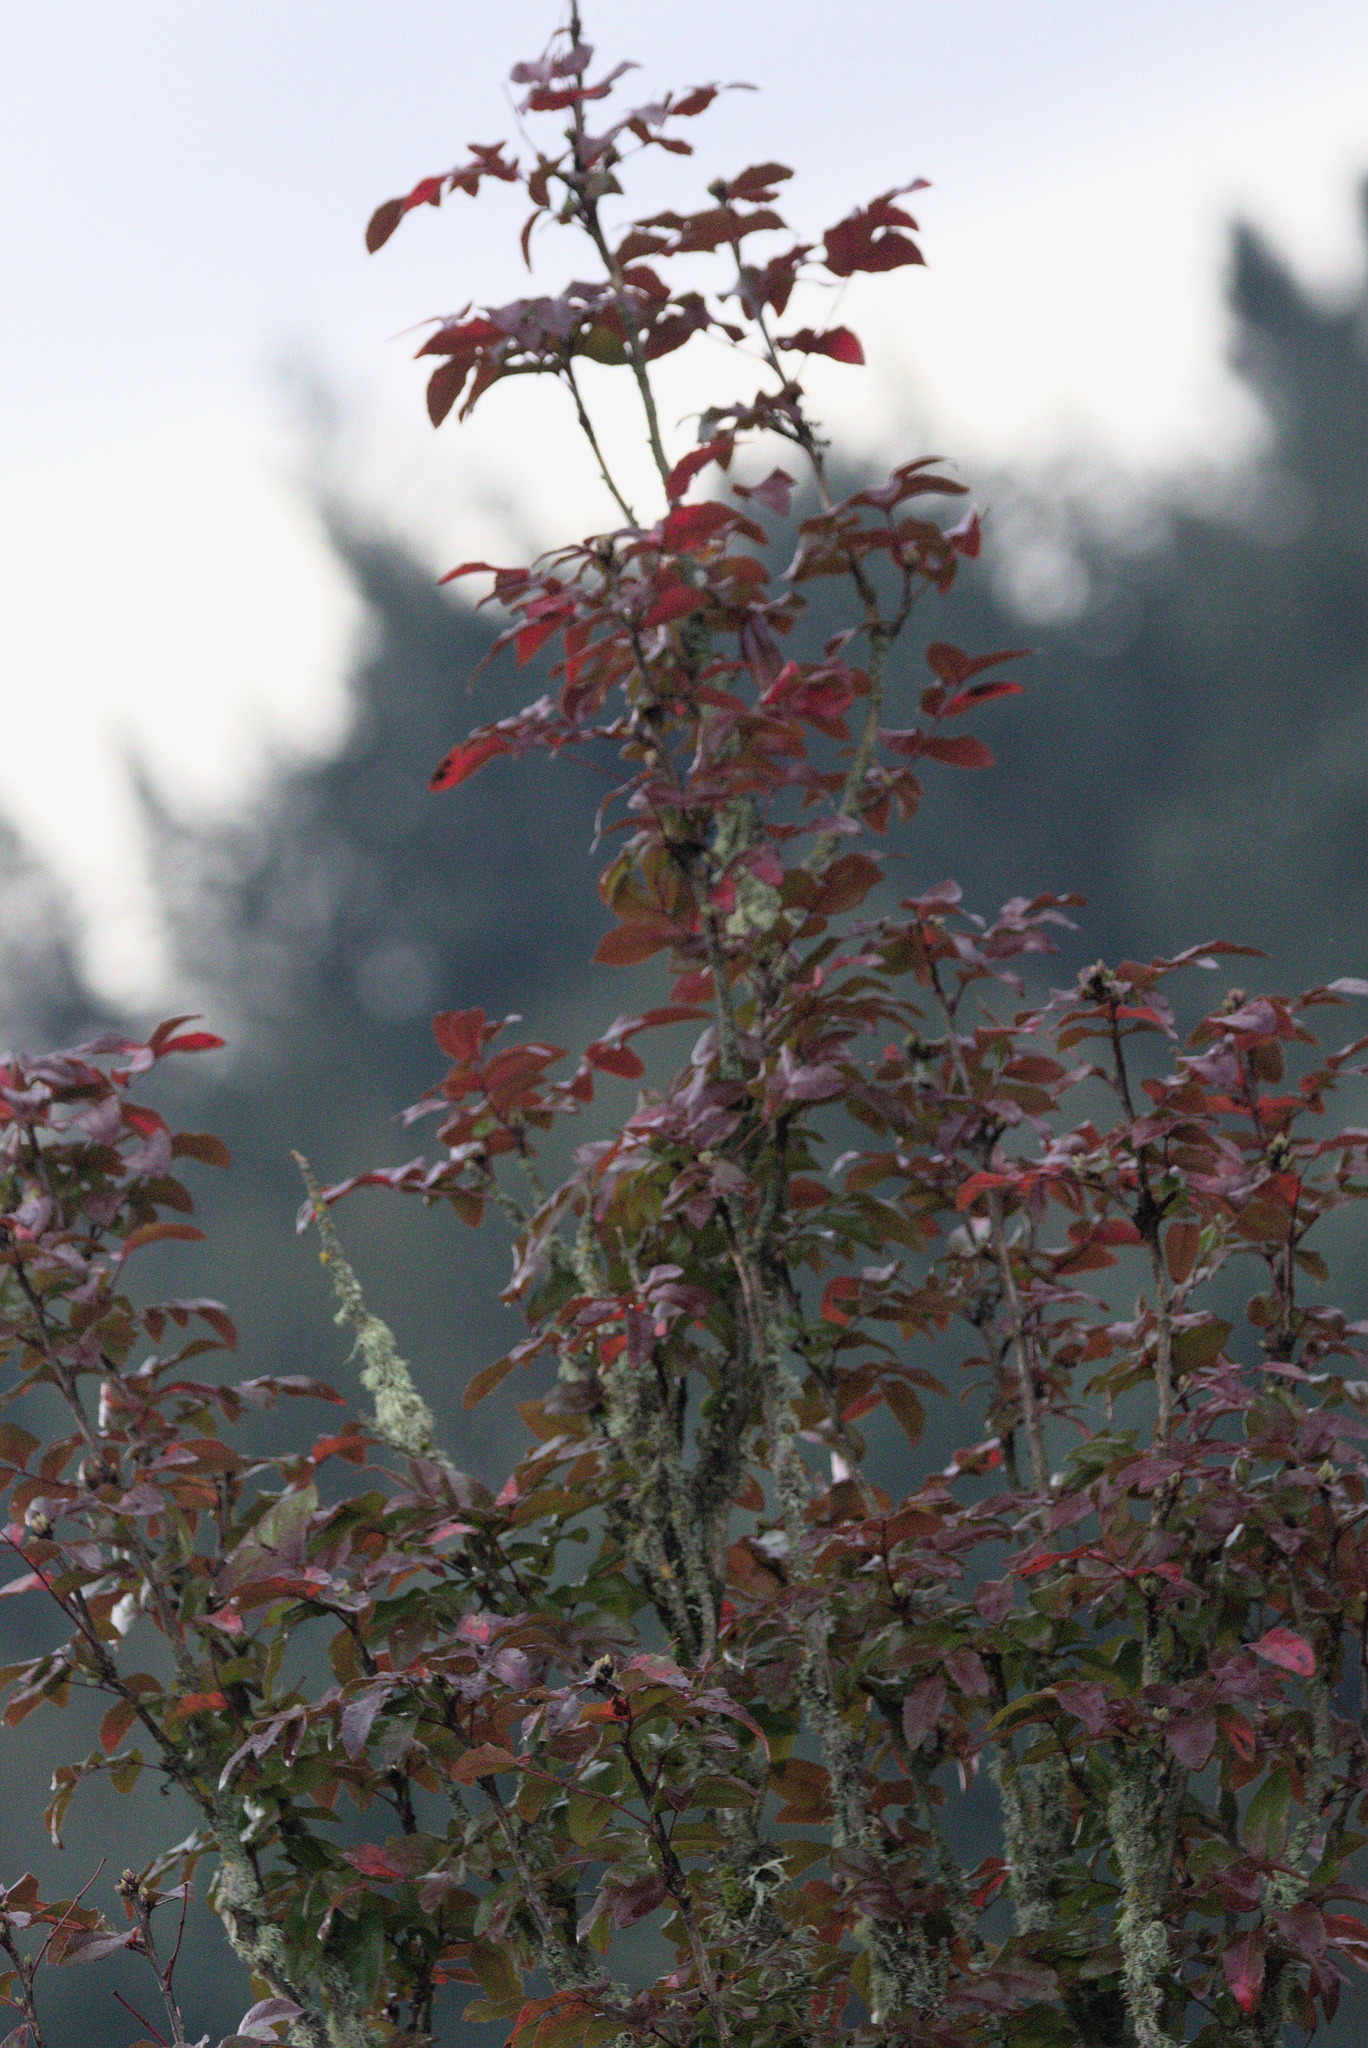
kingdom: Plantae
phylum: Tracheophyta
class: Magnoliopsida
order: Ranunculales
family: Berberidaceae
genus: Mahonia
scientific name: Mahonia aquifolium
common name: Oregon-grape
